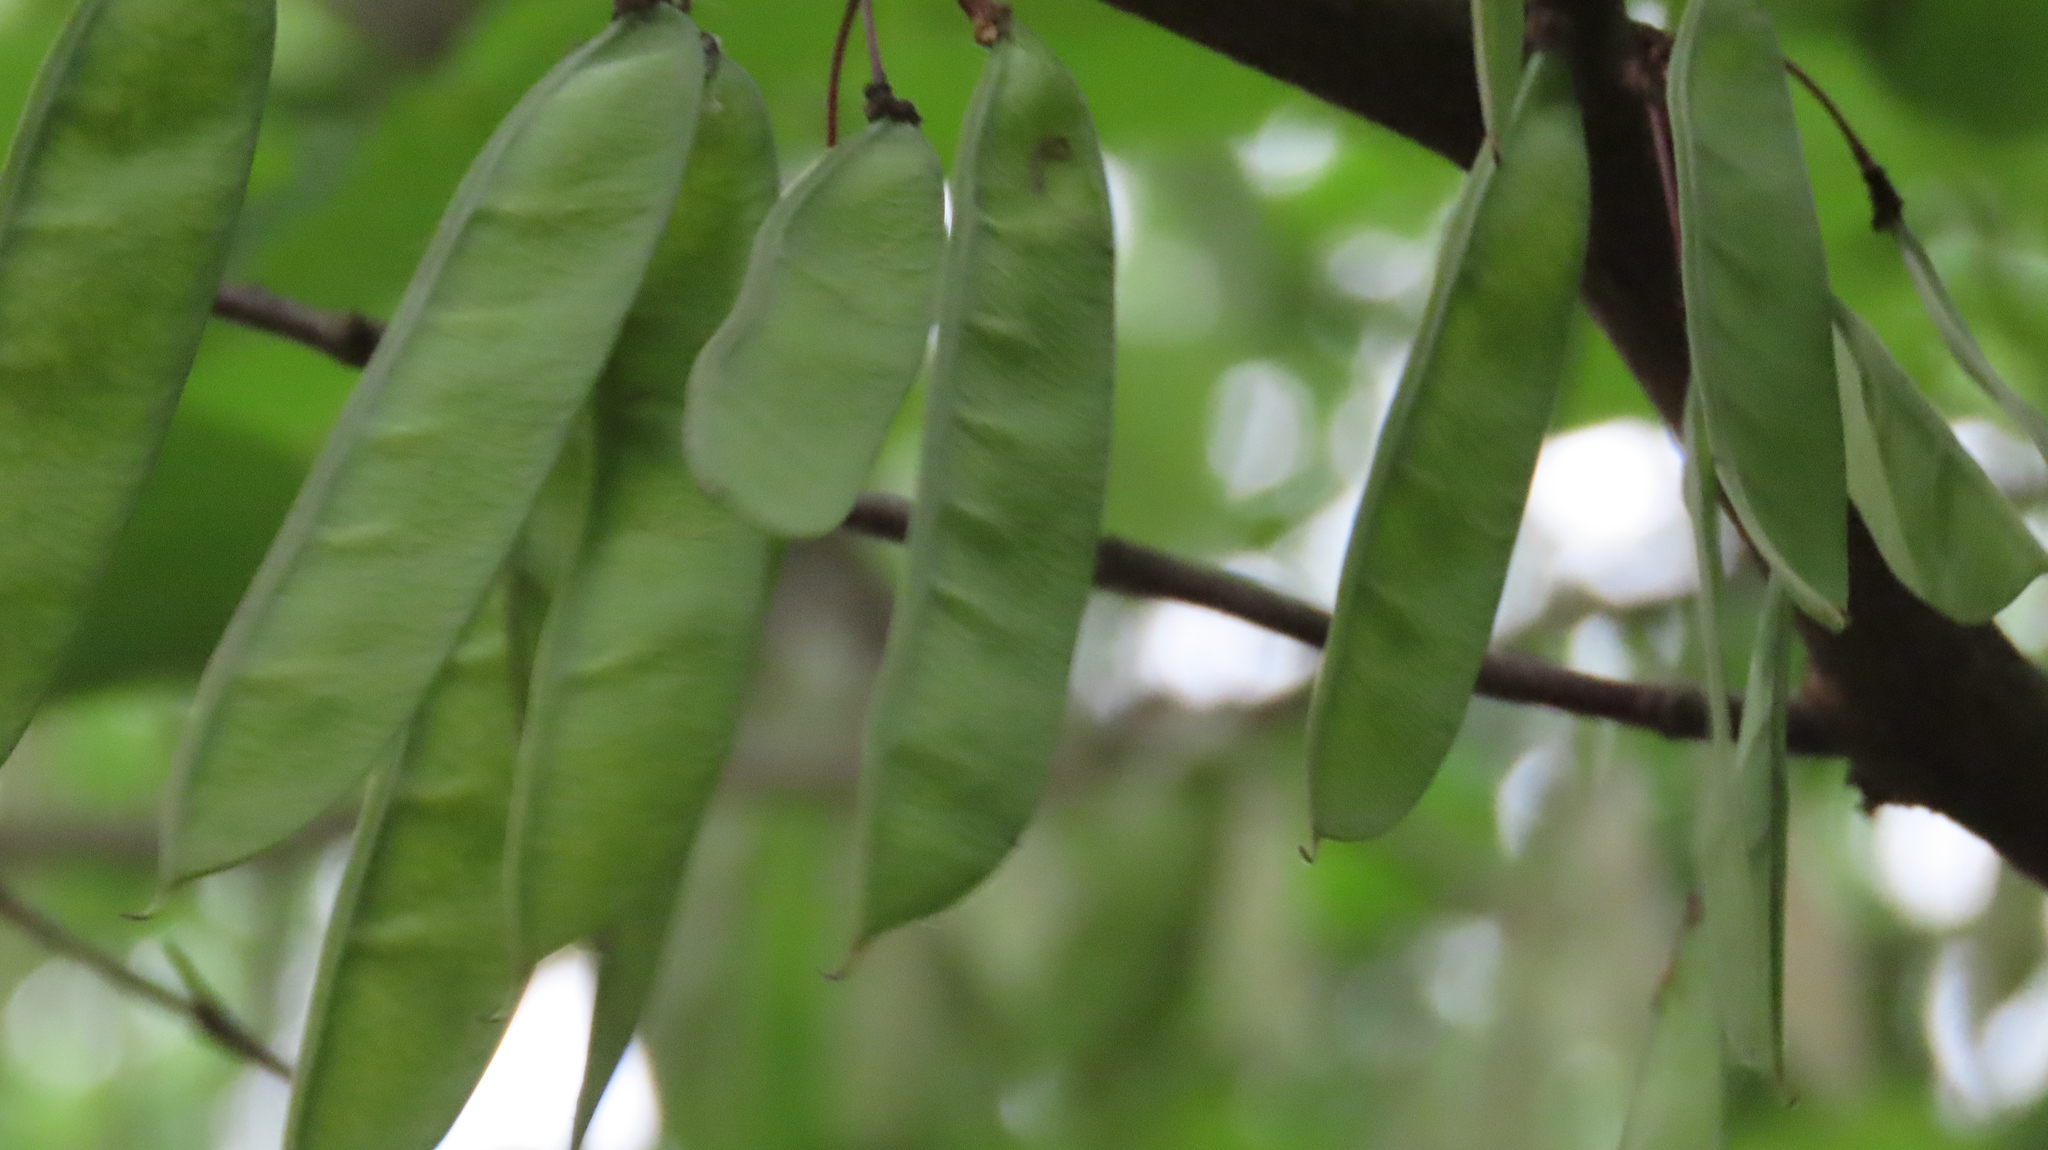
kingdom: Plantae
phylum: Tracheophyta
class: Magnoliopsida
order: Fabales
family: Fabaceae
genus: Cercis
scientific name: Cercis canadensis
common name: Eastern redbud
